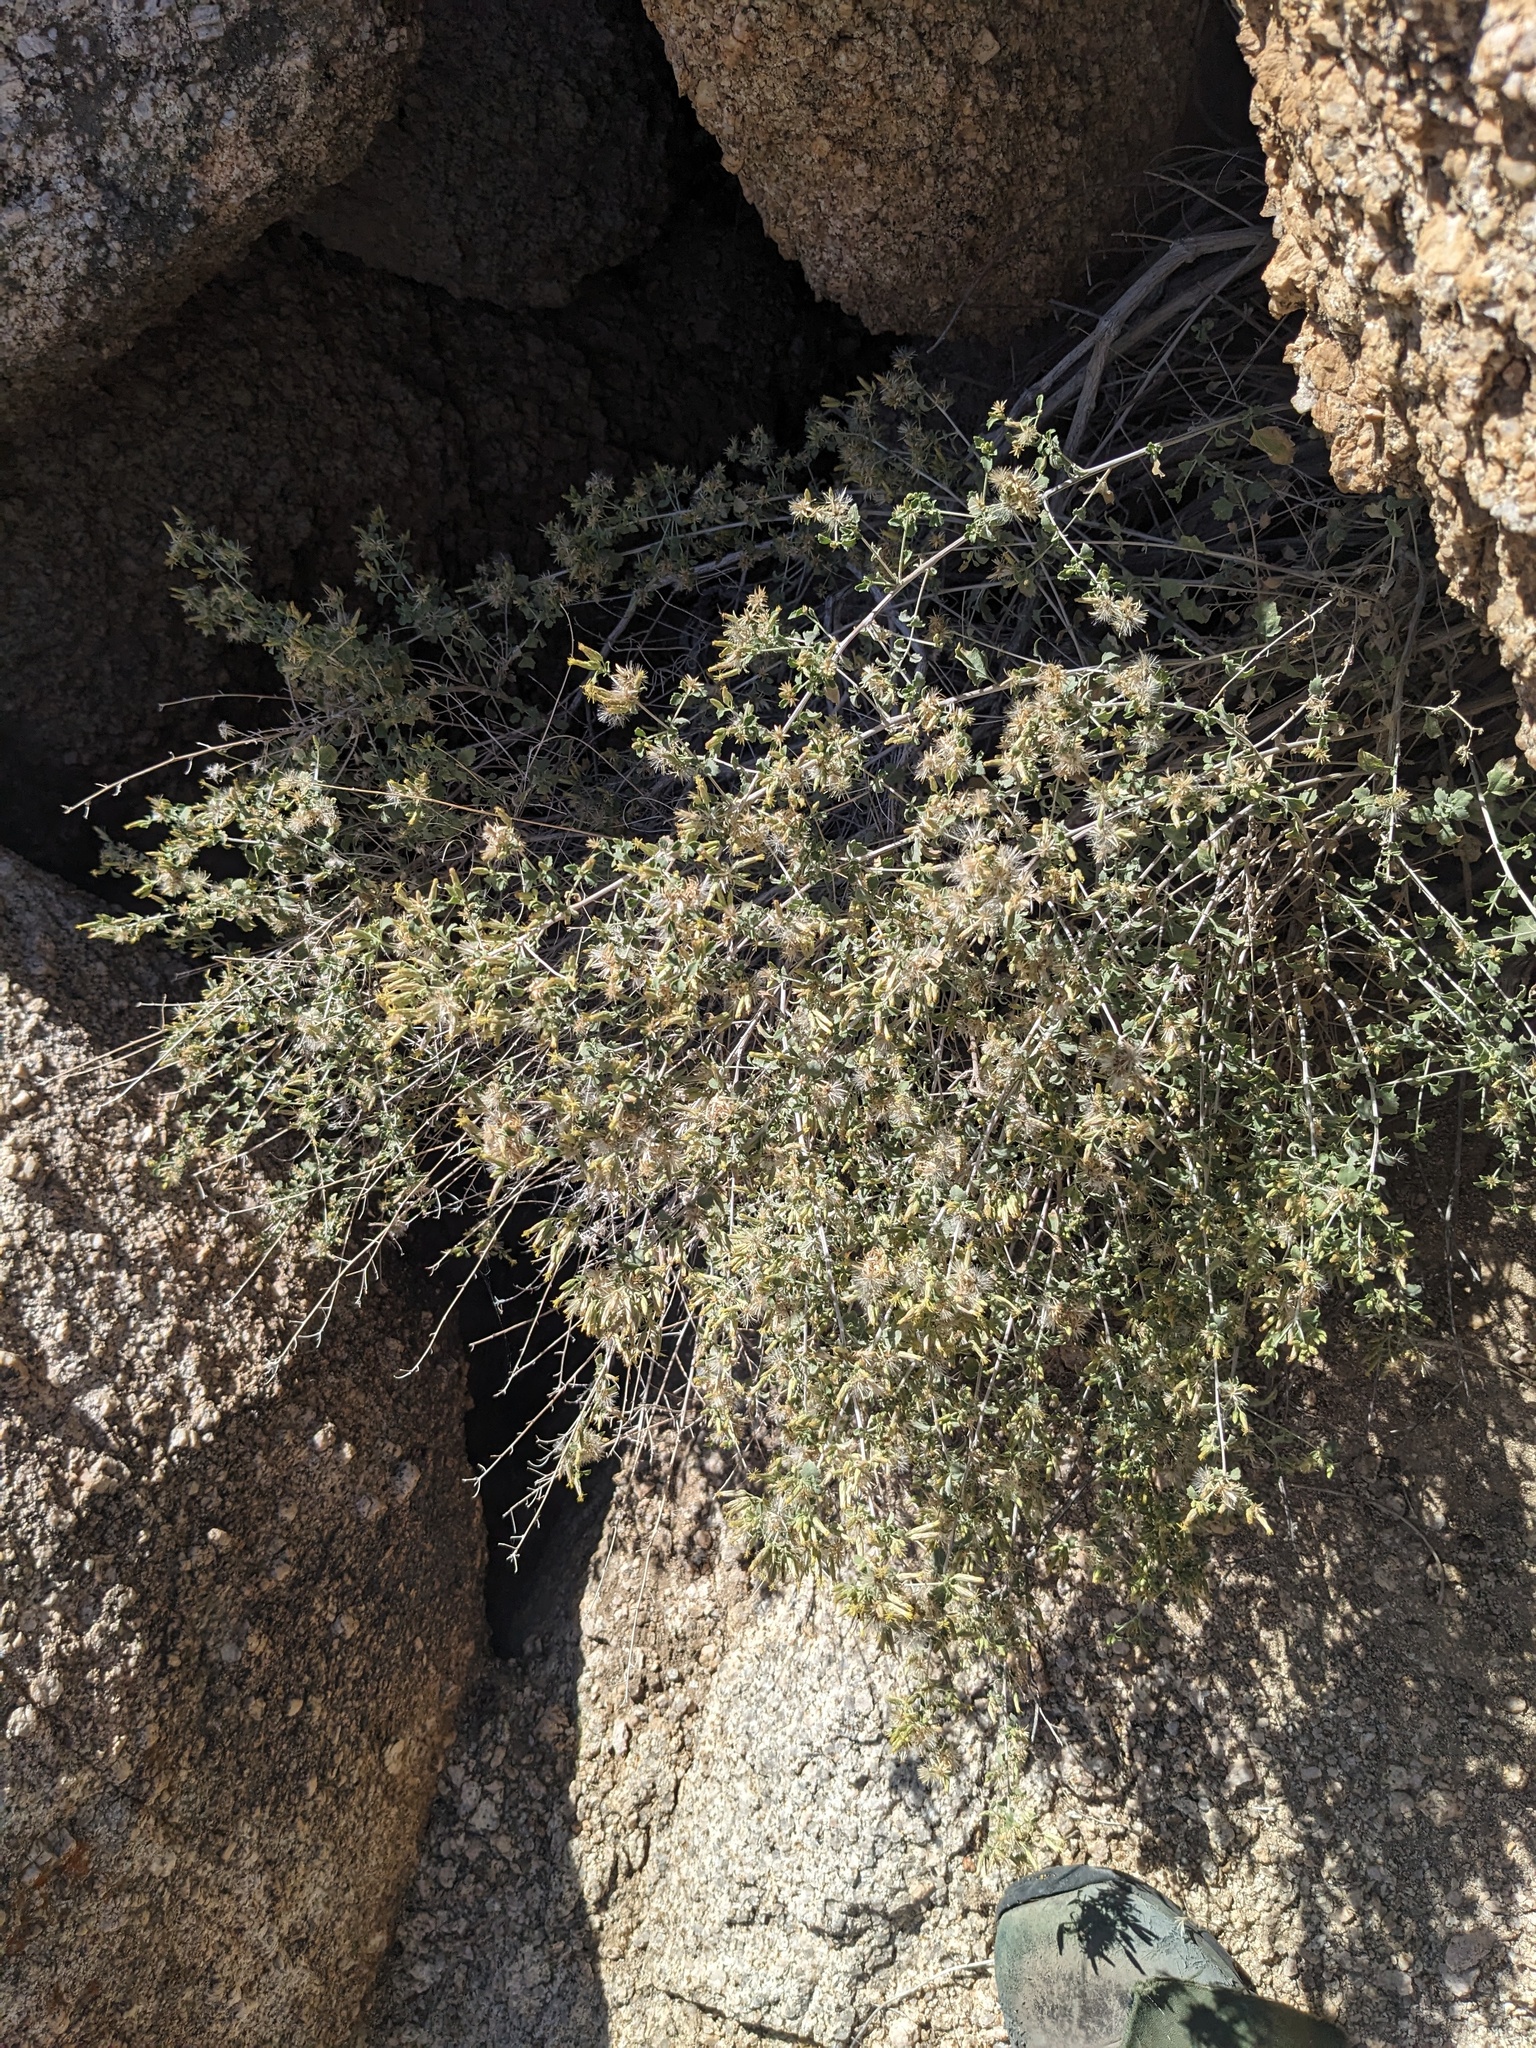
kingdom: Plantae
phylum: Tracheophyta
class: Magnoliopsida
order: Asterales
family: Asteraceae
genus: Brickellia
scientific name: Brickellia desertorum
